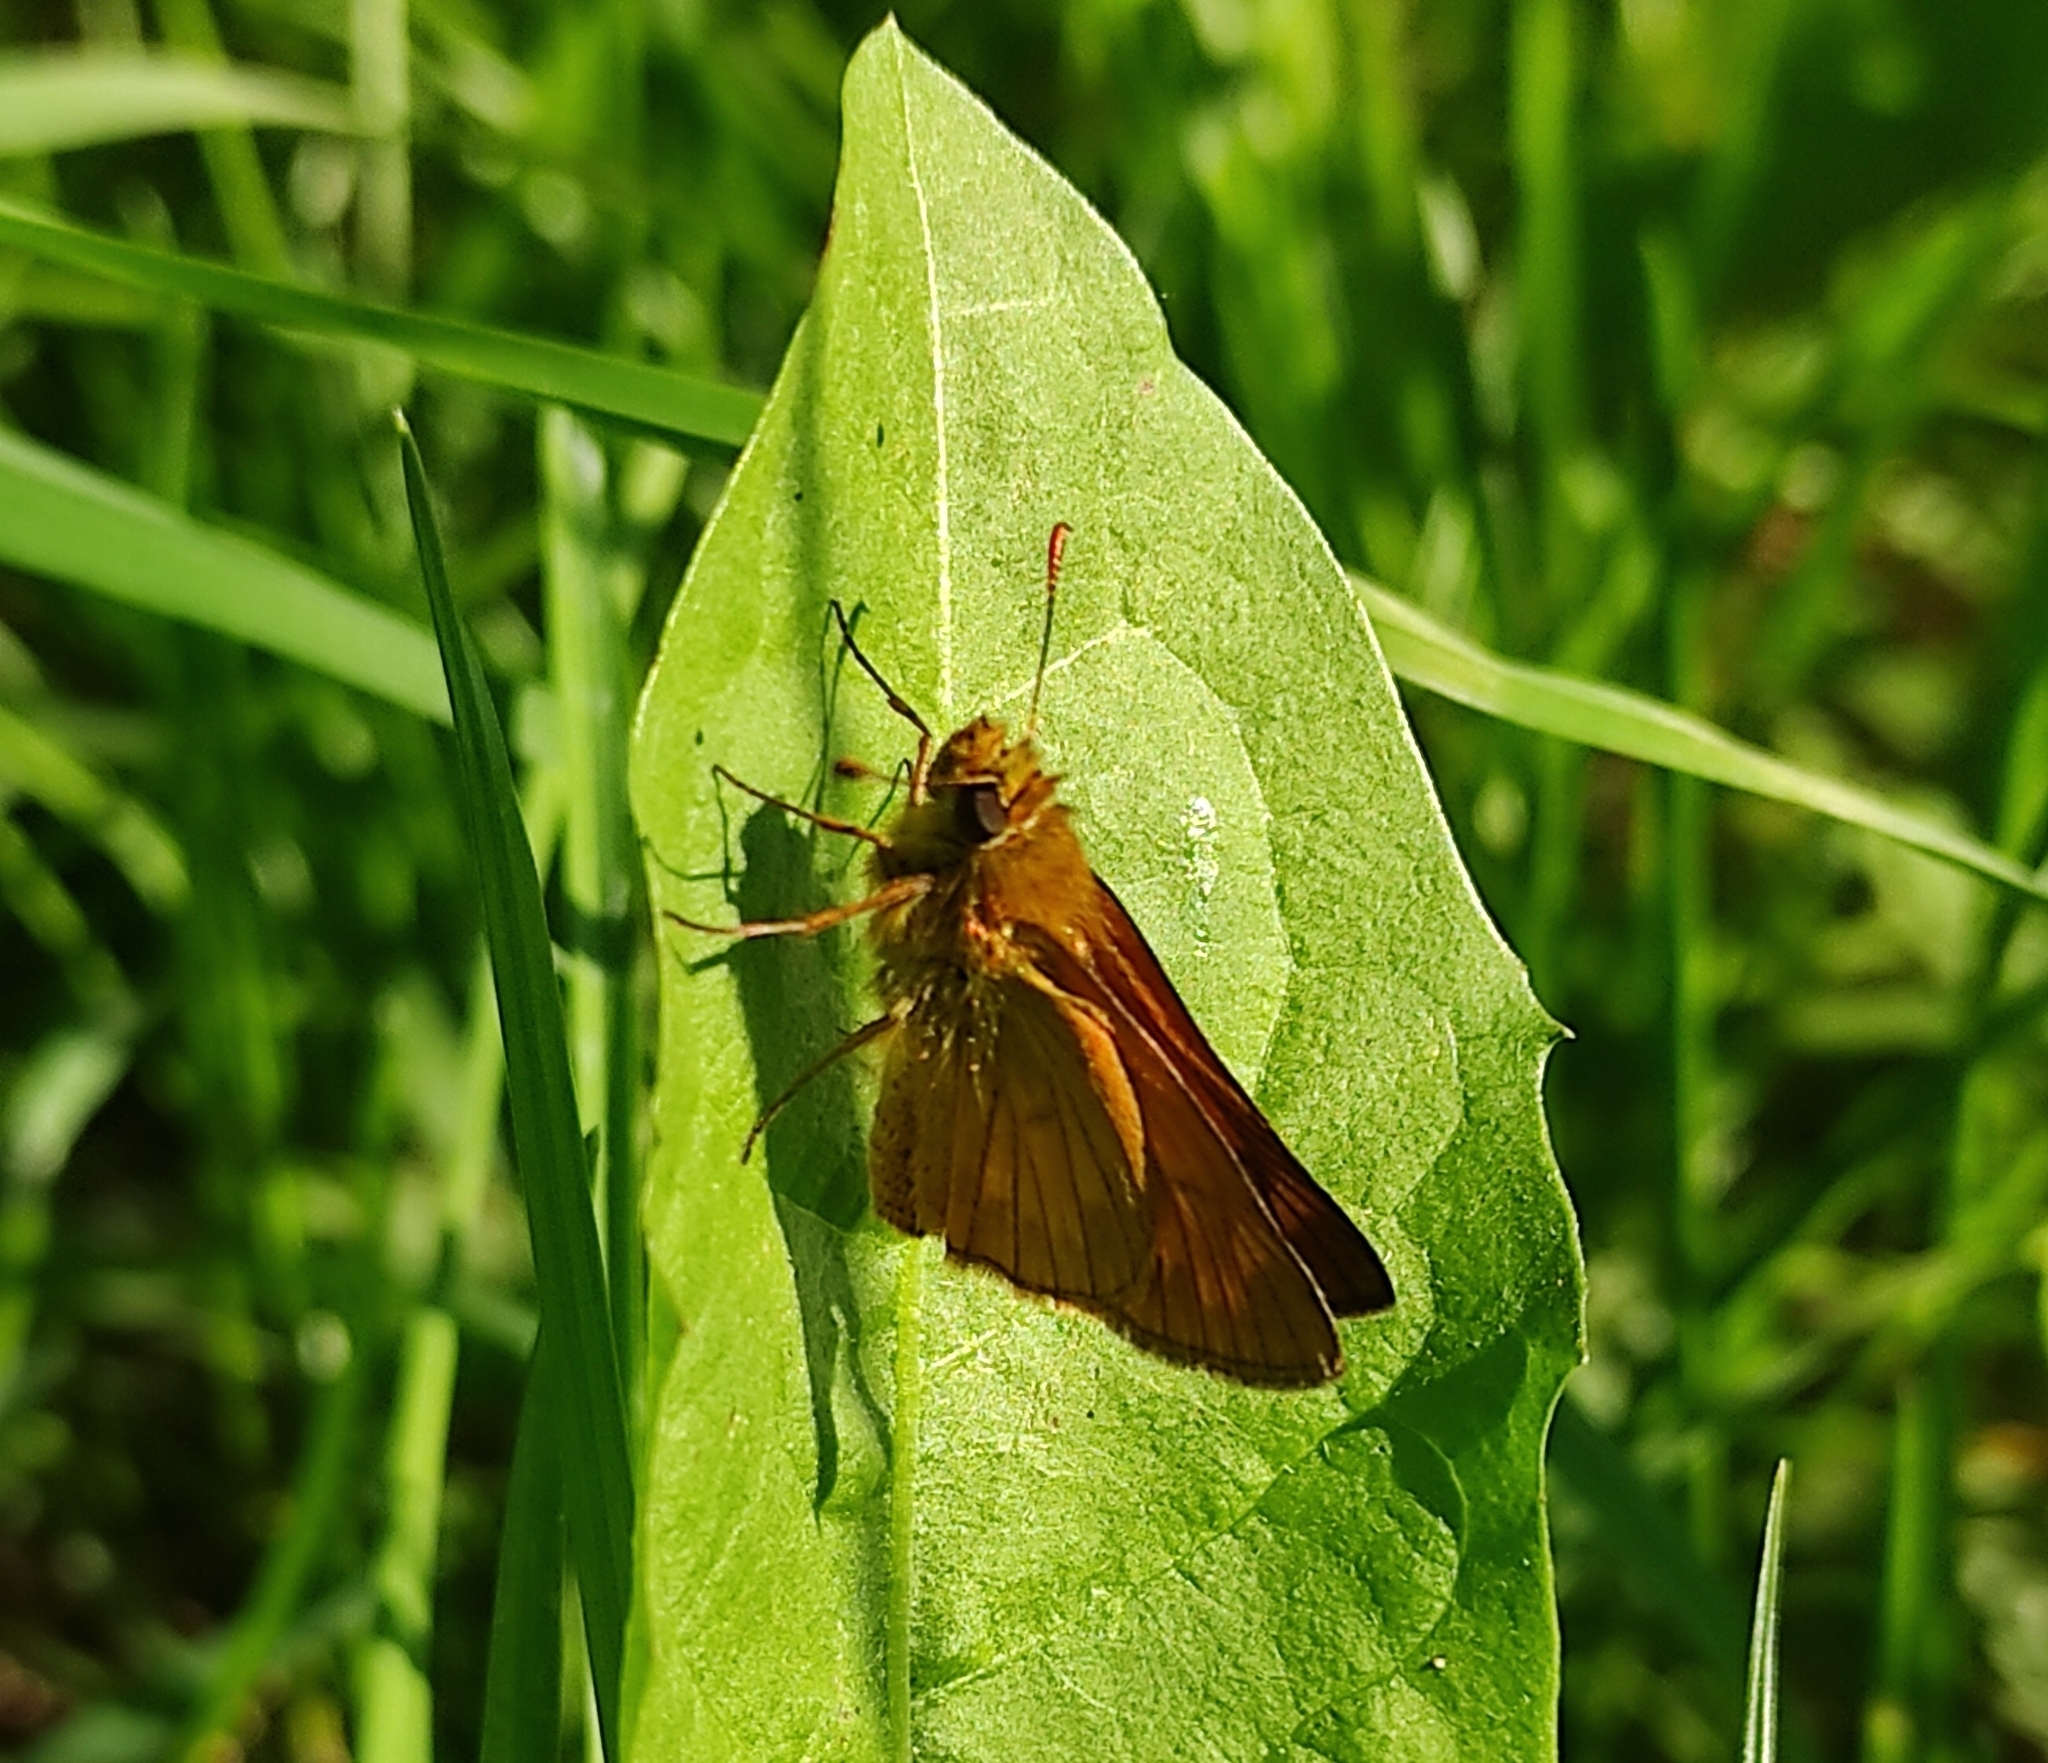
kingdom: Animalia
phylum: Arthropoda
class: Insecta
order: Lepidoptera
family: Hesperiidae
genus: Ochlodes
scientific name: Ochlodes venata
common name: Large skipper
